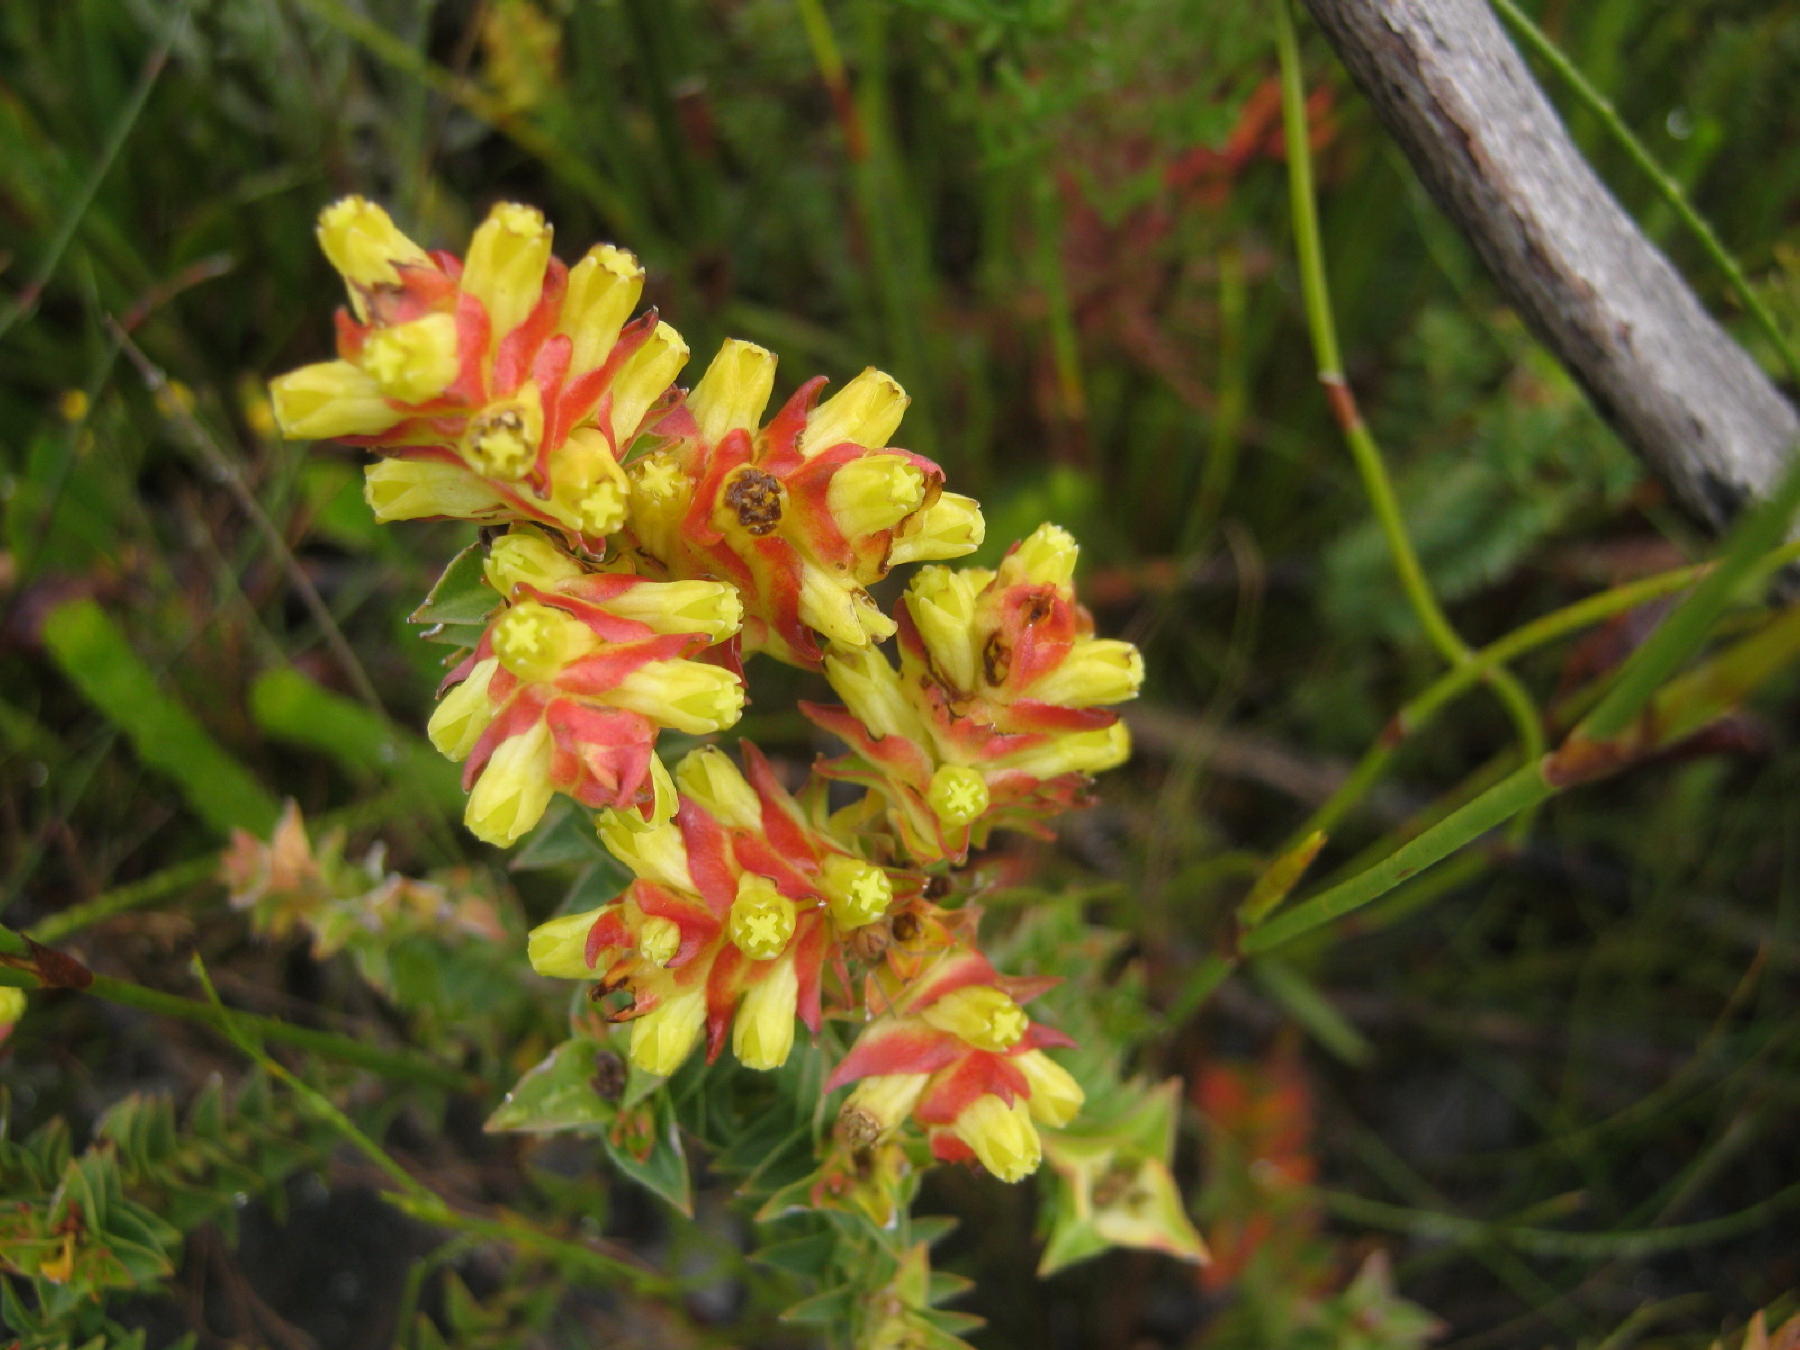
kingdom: Plantae
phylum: Tracheophyta
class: Magnoliopsida
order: Myrtales
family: Penaeaceae
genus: Penaea
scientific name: Penaea mucronata
